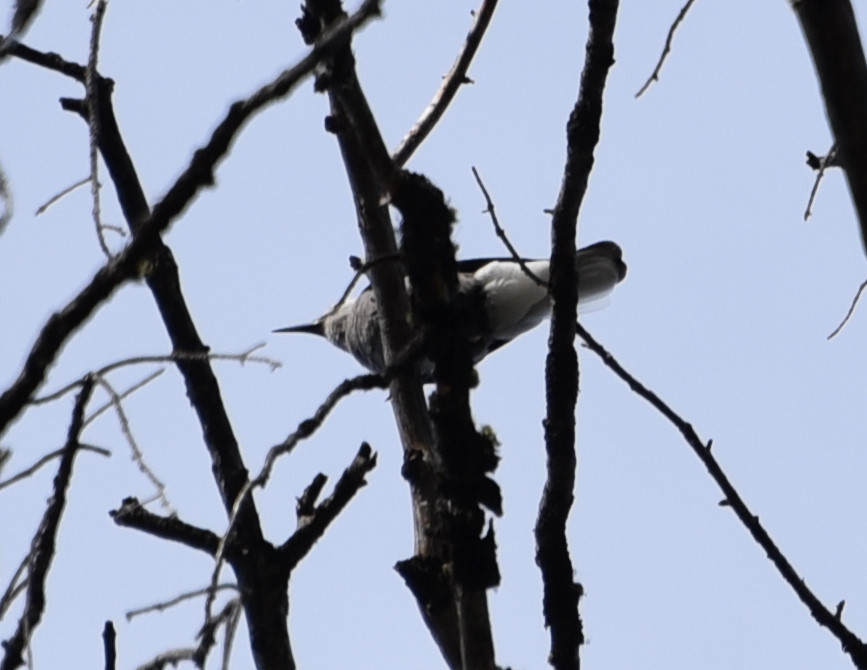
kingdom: Animalia
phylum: Chordata
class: Aves
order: Passeriformes
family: Corvidae
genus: Nucifraga
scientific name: Nucifraga columbiana
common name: Clark's nutcracker
